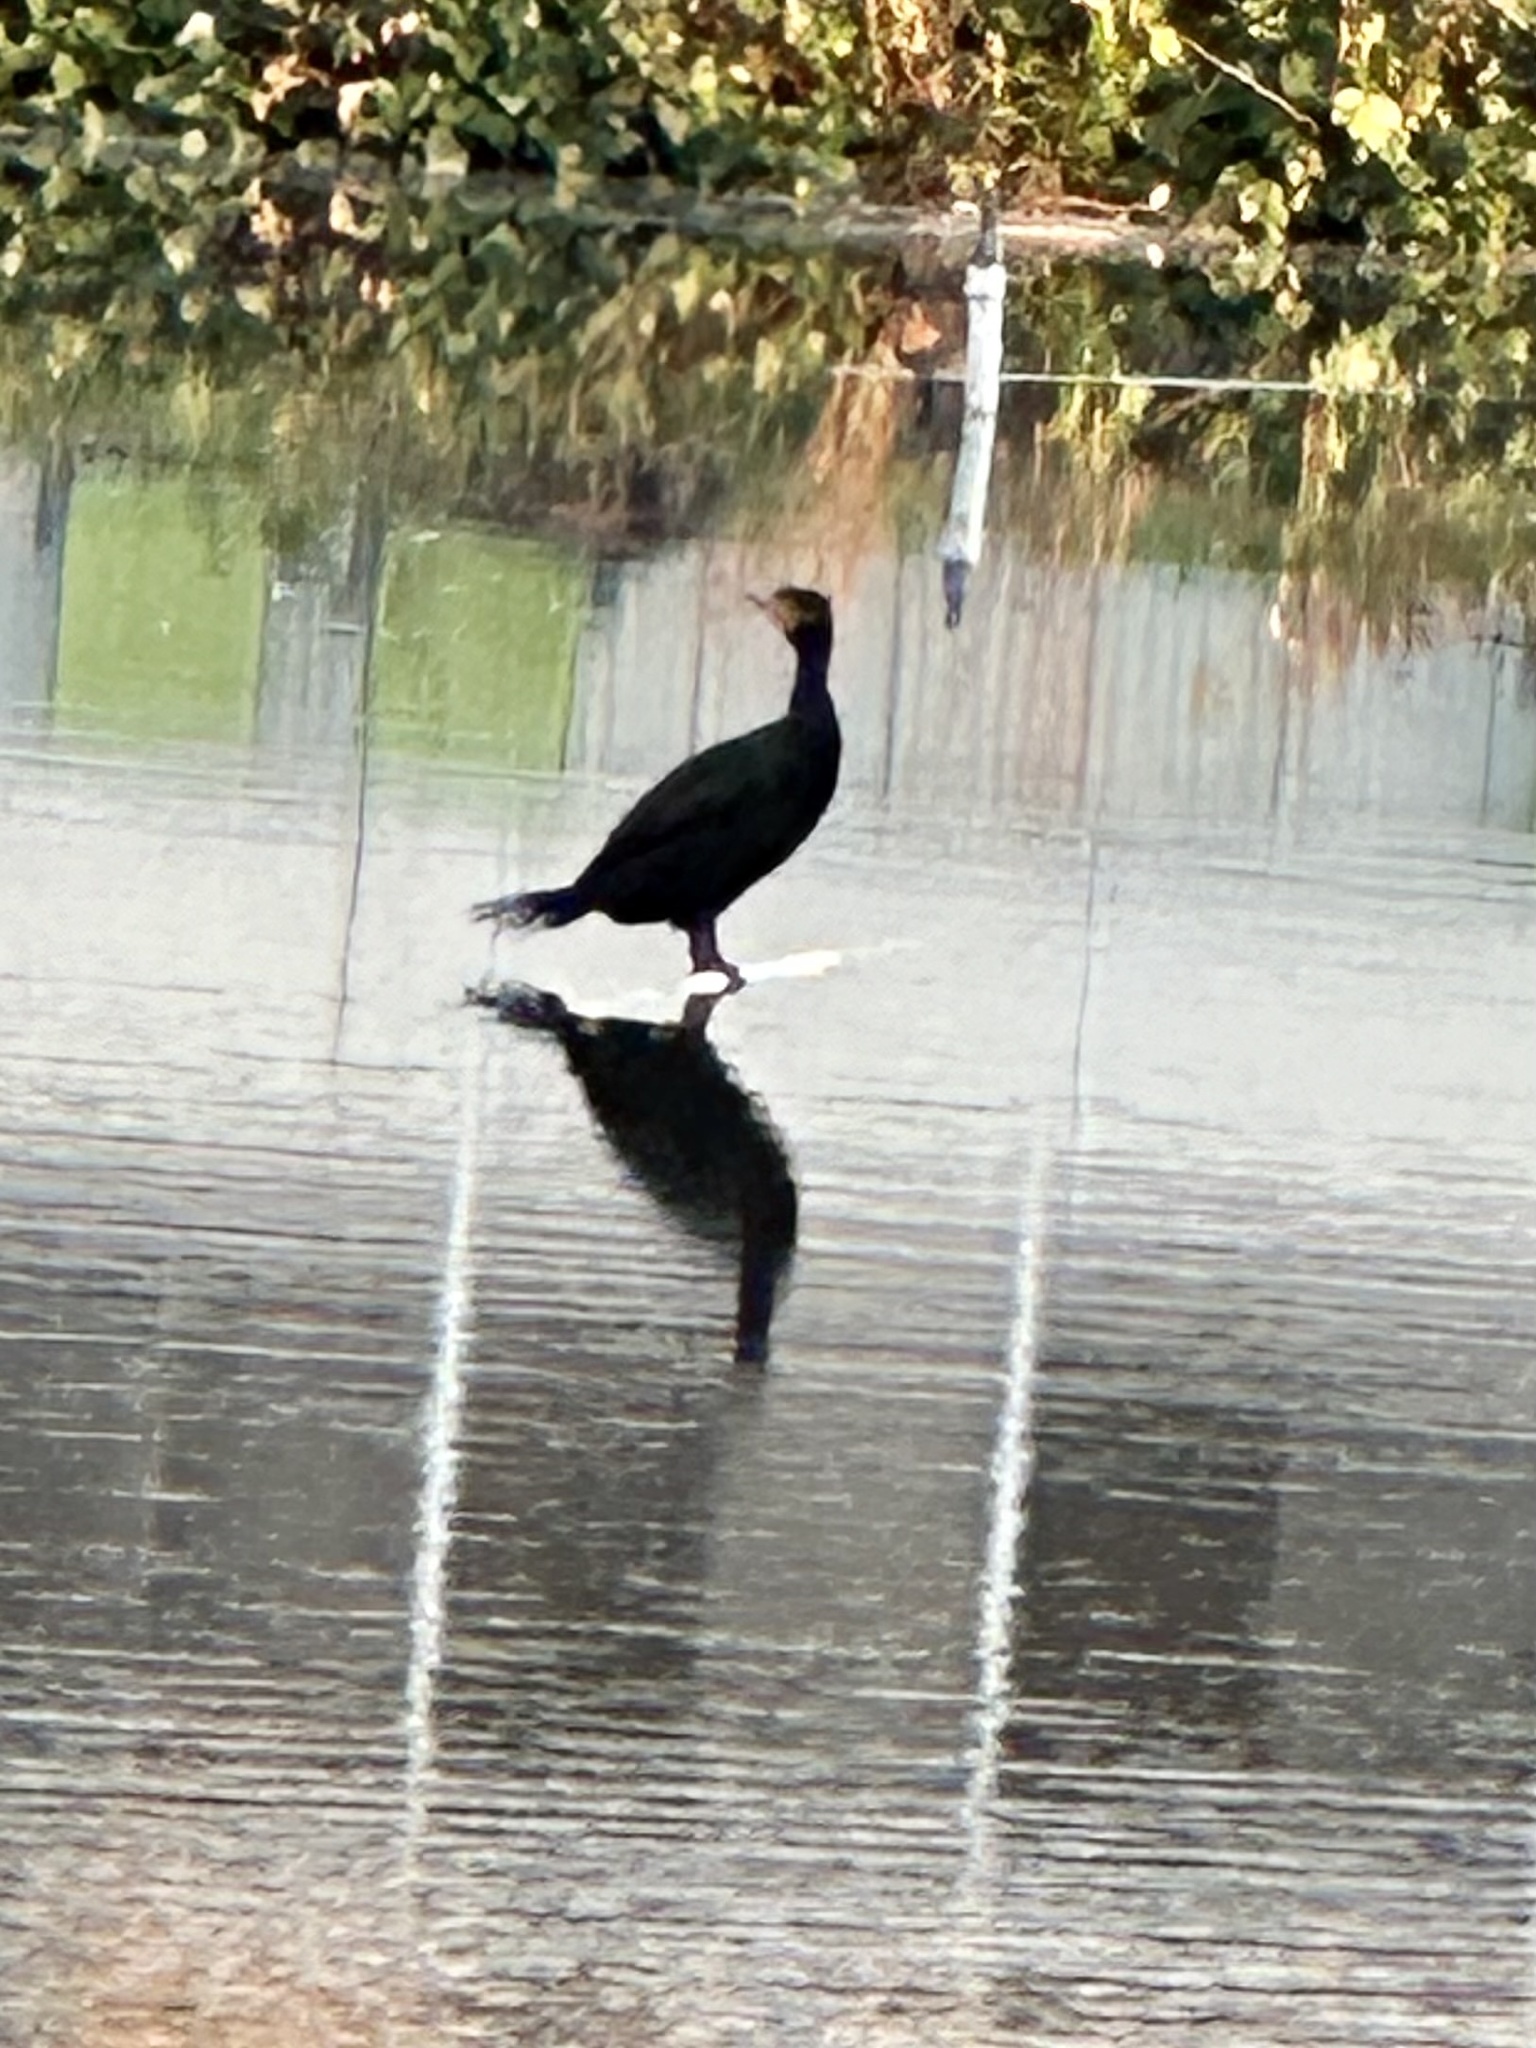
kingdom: Animalia
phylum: Chordata
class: Aves
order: Suliformes
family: Phalacrocoracidae
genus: Phalacrocorax
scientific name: Phalacrocorax auritus
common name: Double-crested cormorant
